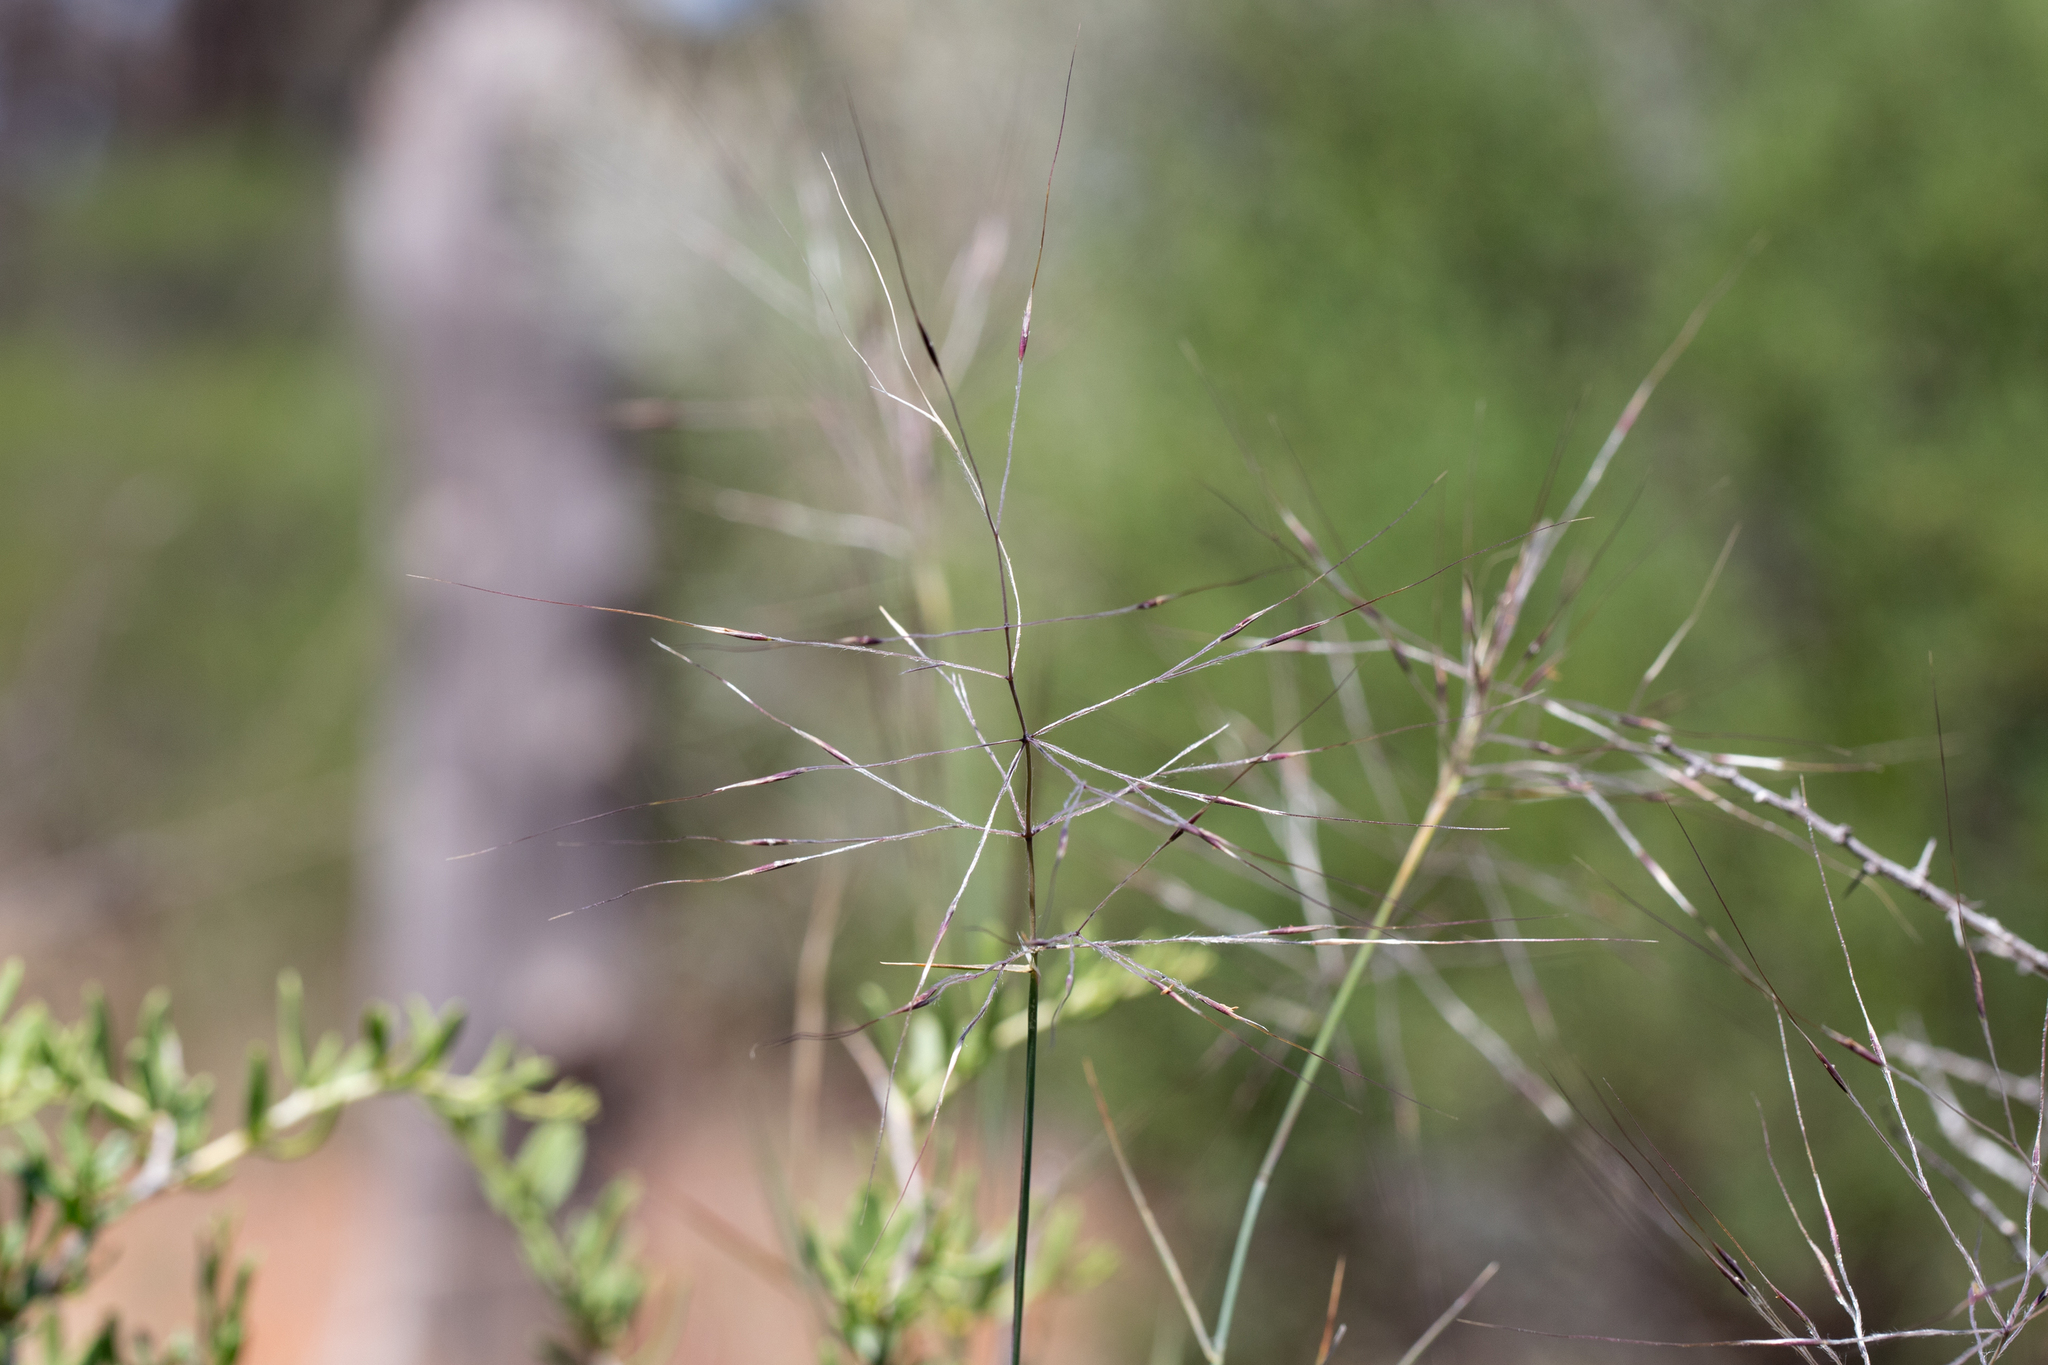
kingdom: Plantae
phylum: Tracheophyta
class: Liliopsida
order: Poales
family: Poaceae
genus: Austrostipa
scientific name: Austrostipa elegantissima
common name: Feather spear grass
